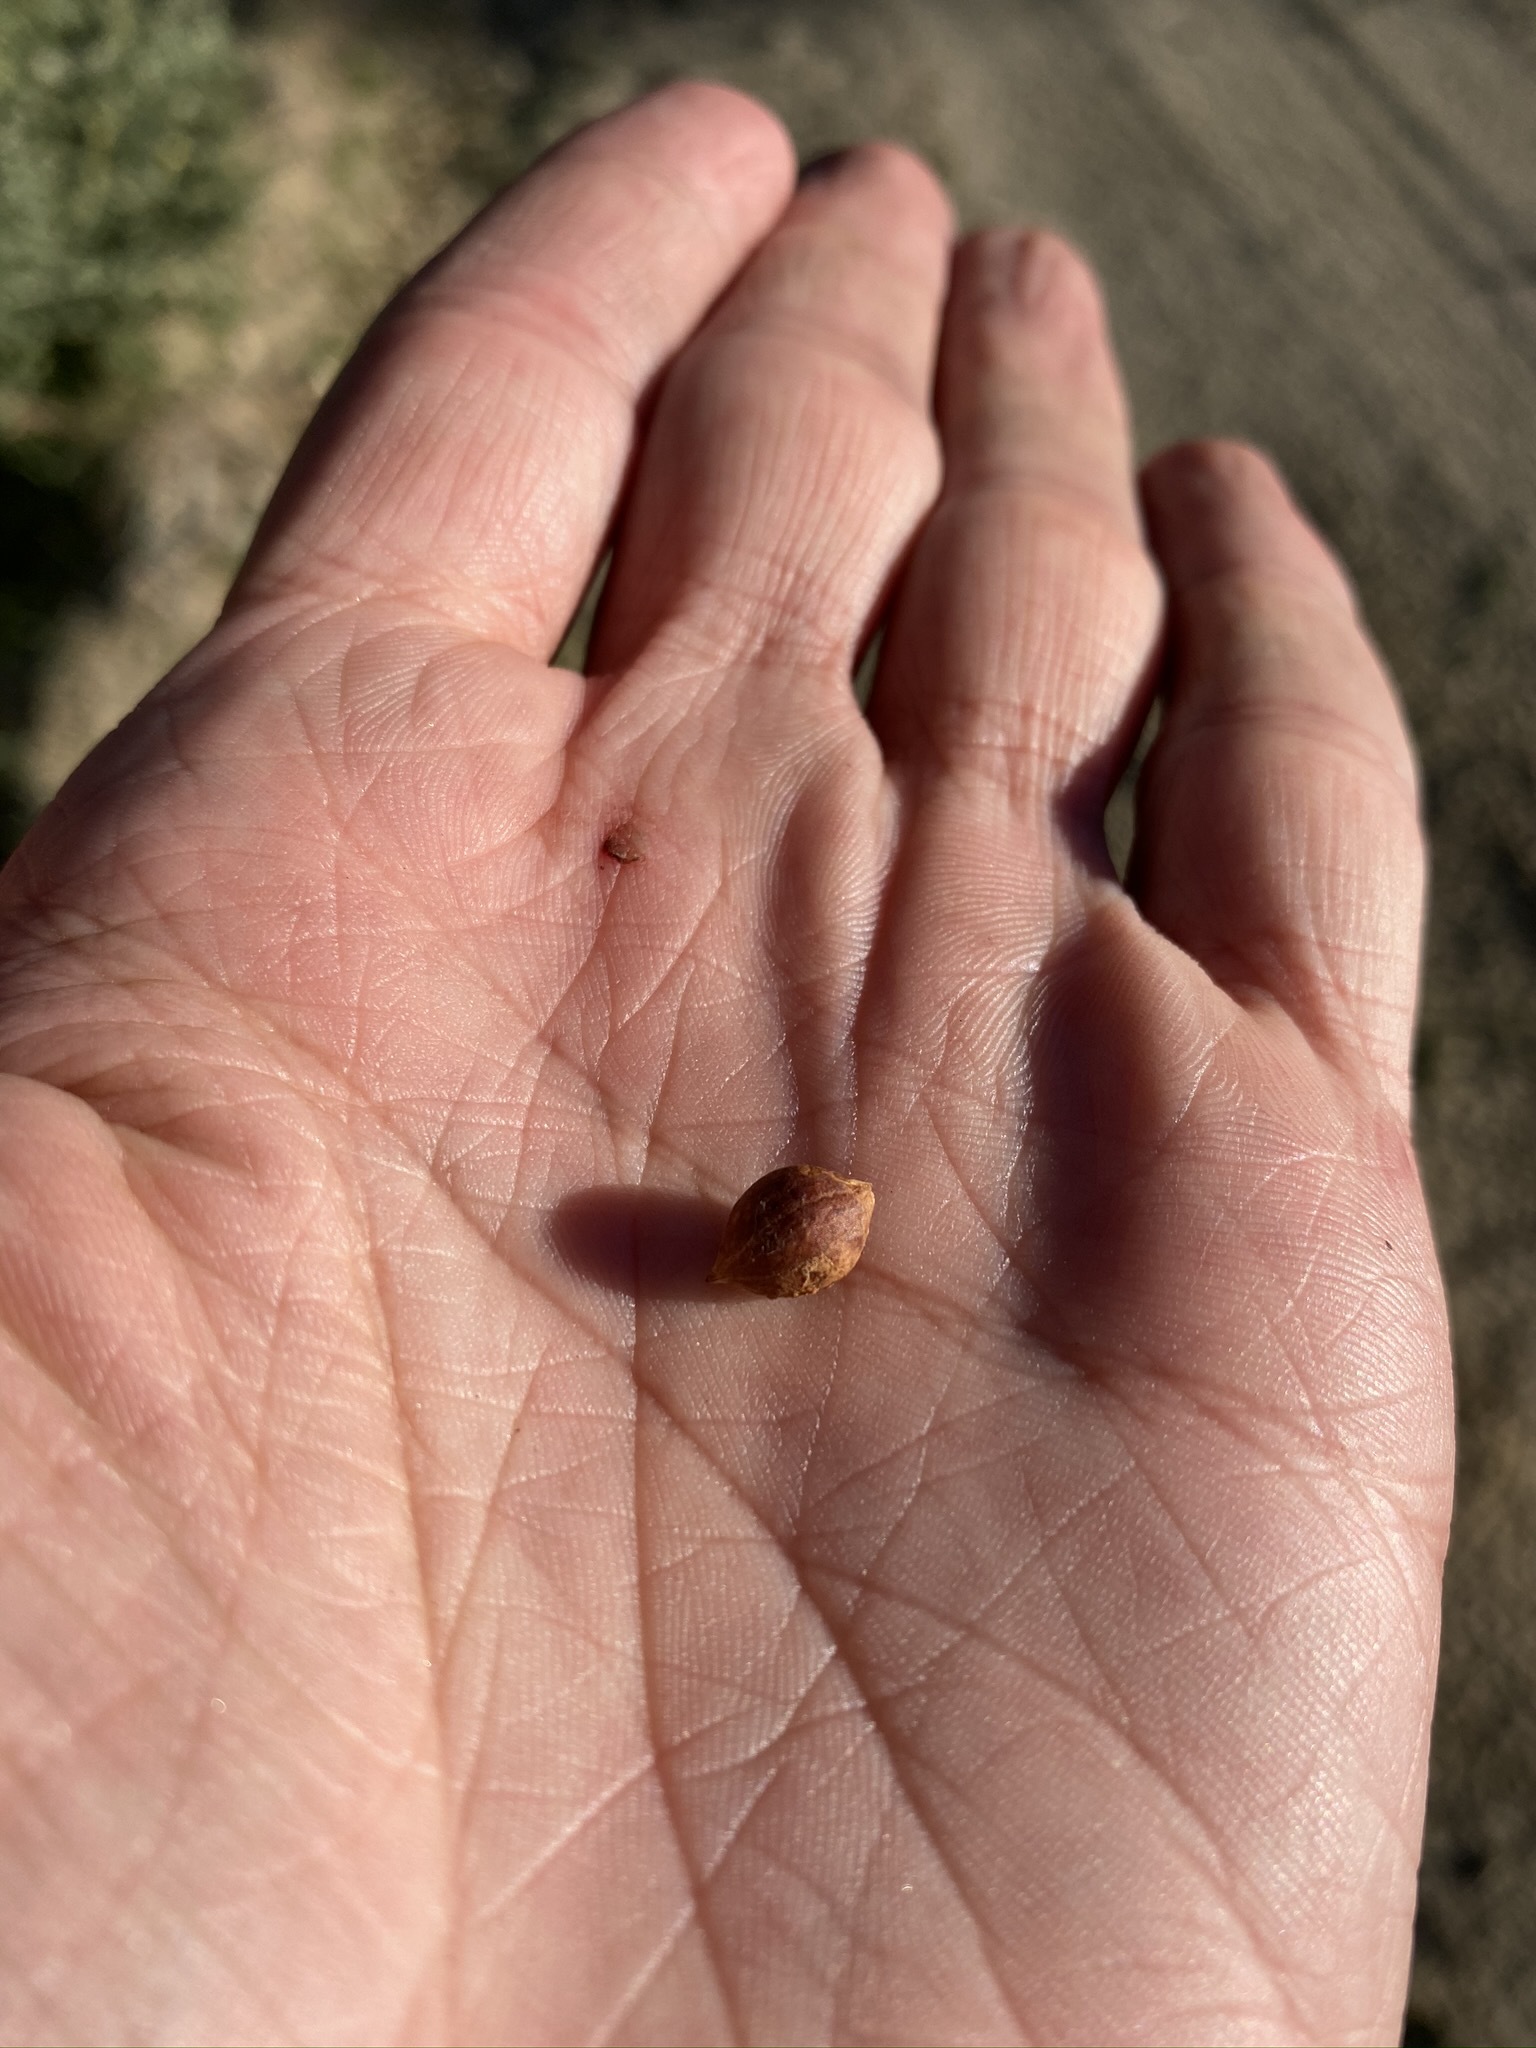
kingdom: Plantae
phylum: Tracheophyta
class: Magnoliopsida
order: Ericales
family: Ericaceae
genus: Arctostaphylos
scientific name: Arctostaphylos glauca
